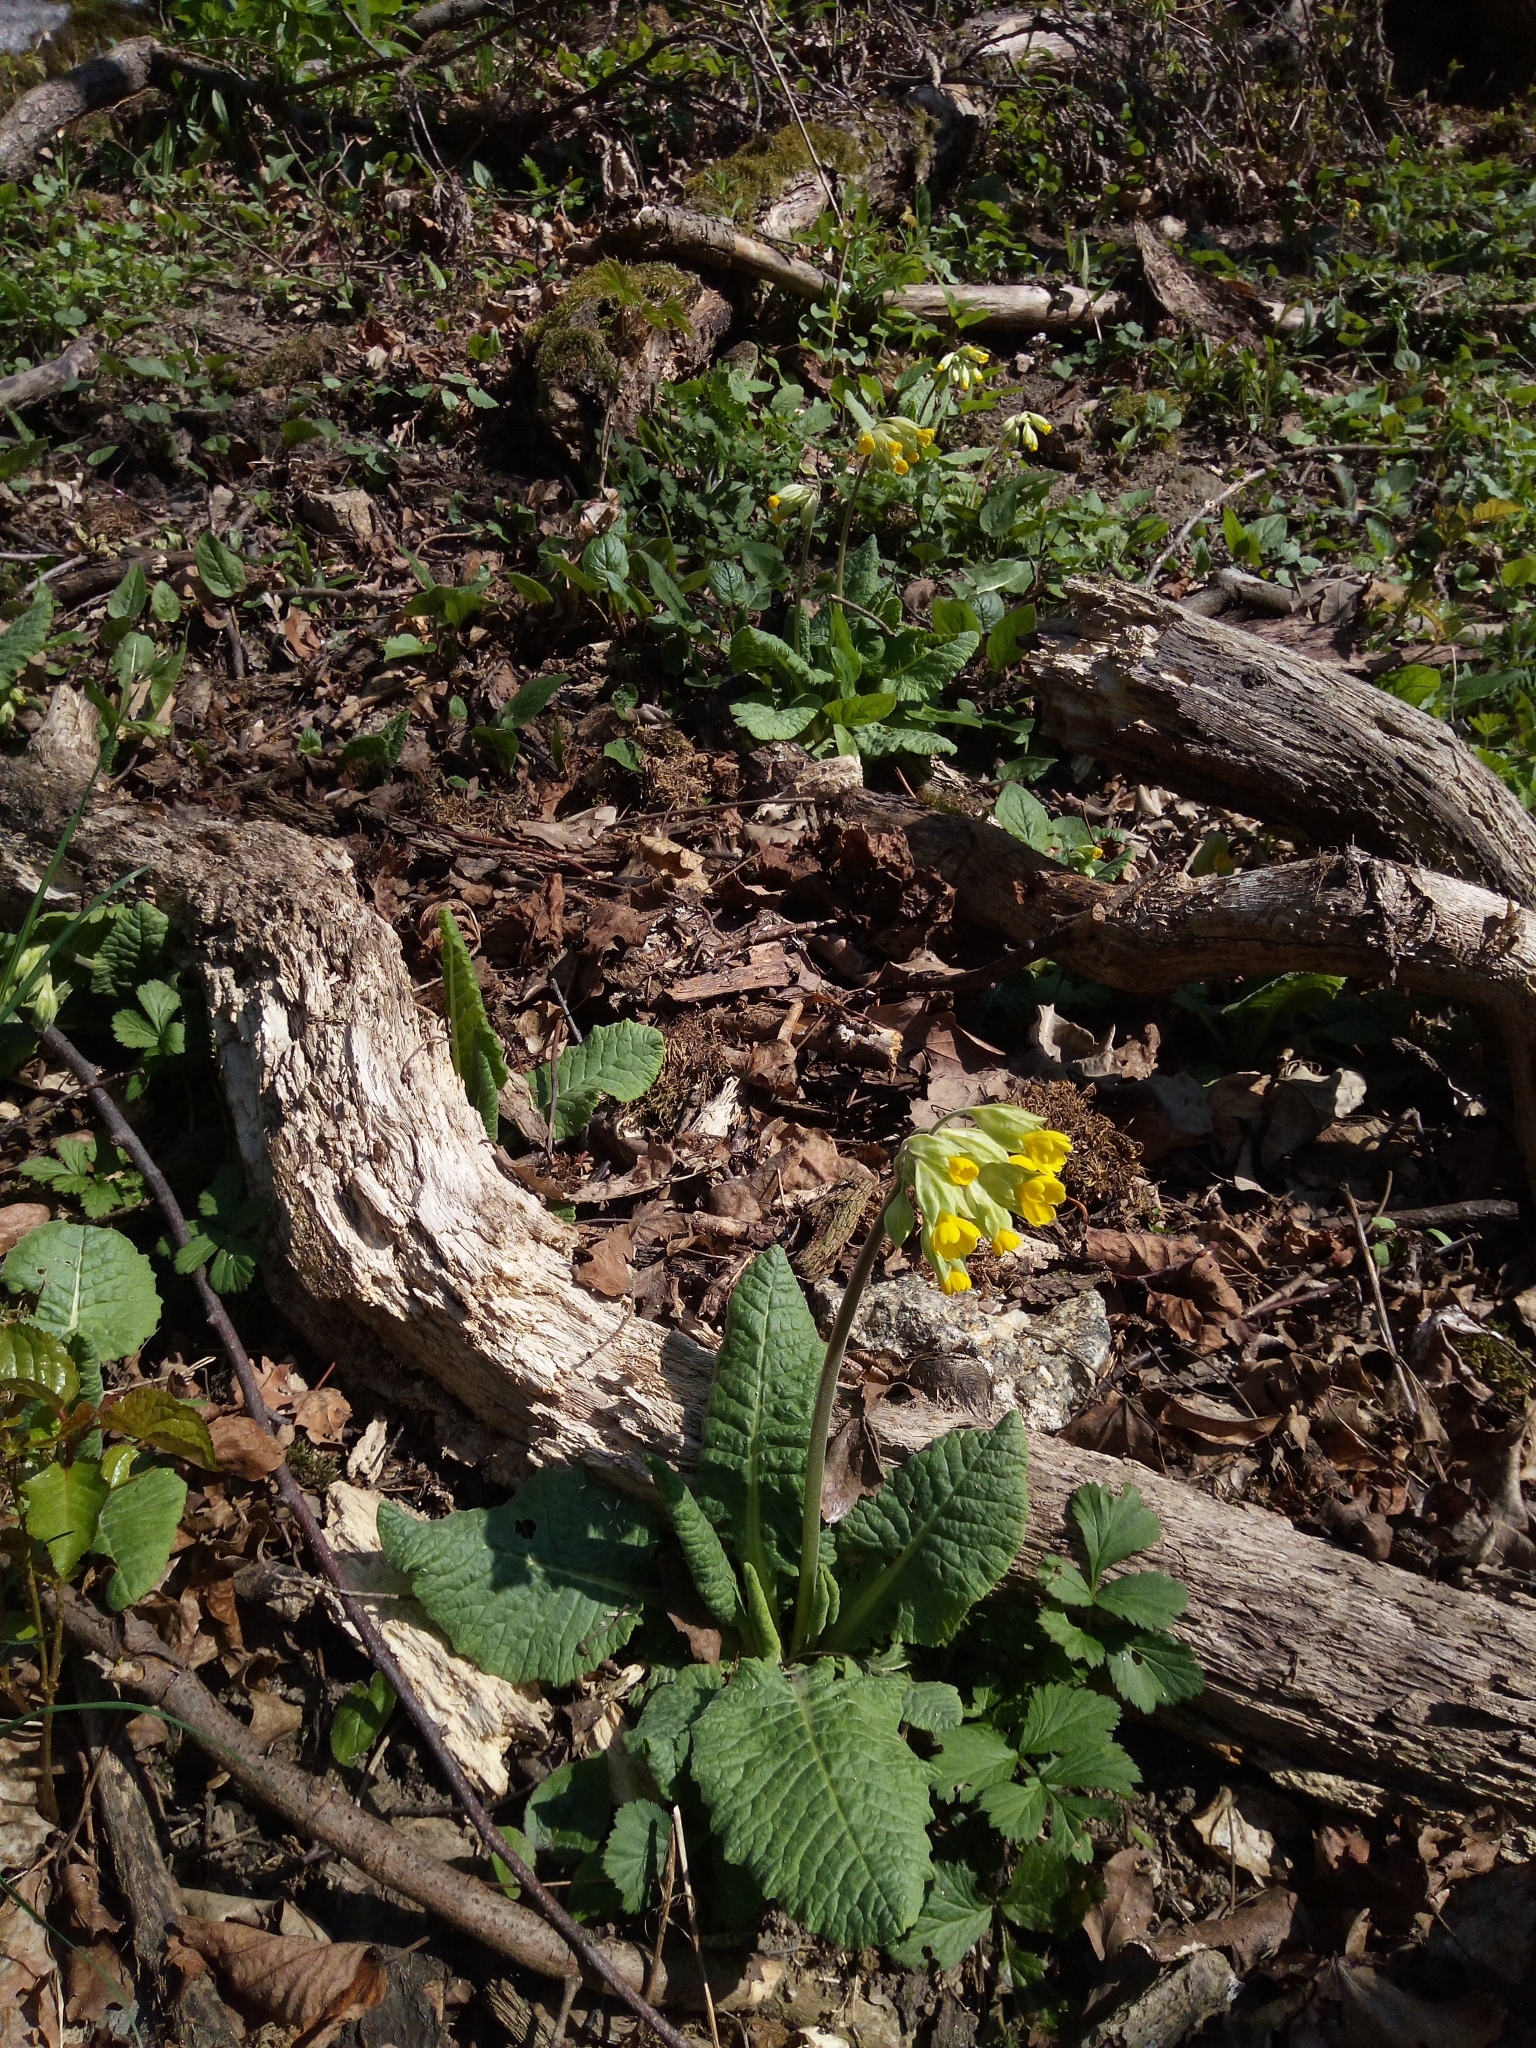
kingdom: Plantae
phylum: Tracheophyta
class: Magnoliopsida
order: Ericales
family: Primulaceae
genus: Primula
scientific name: Primula veris
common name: Cowslip
